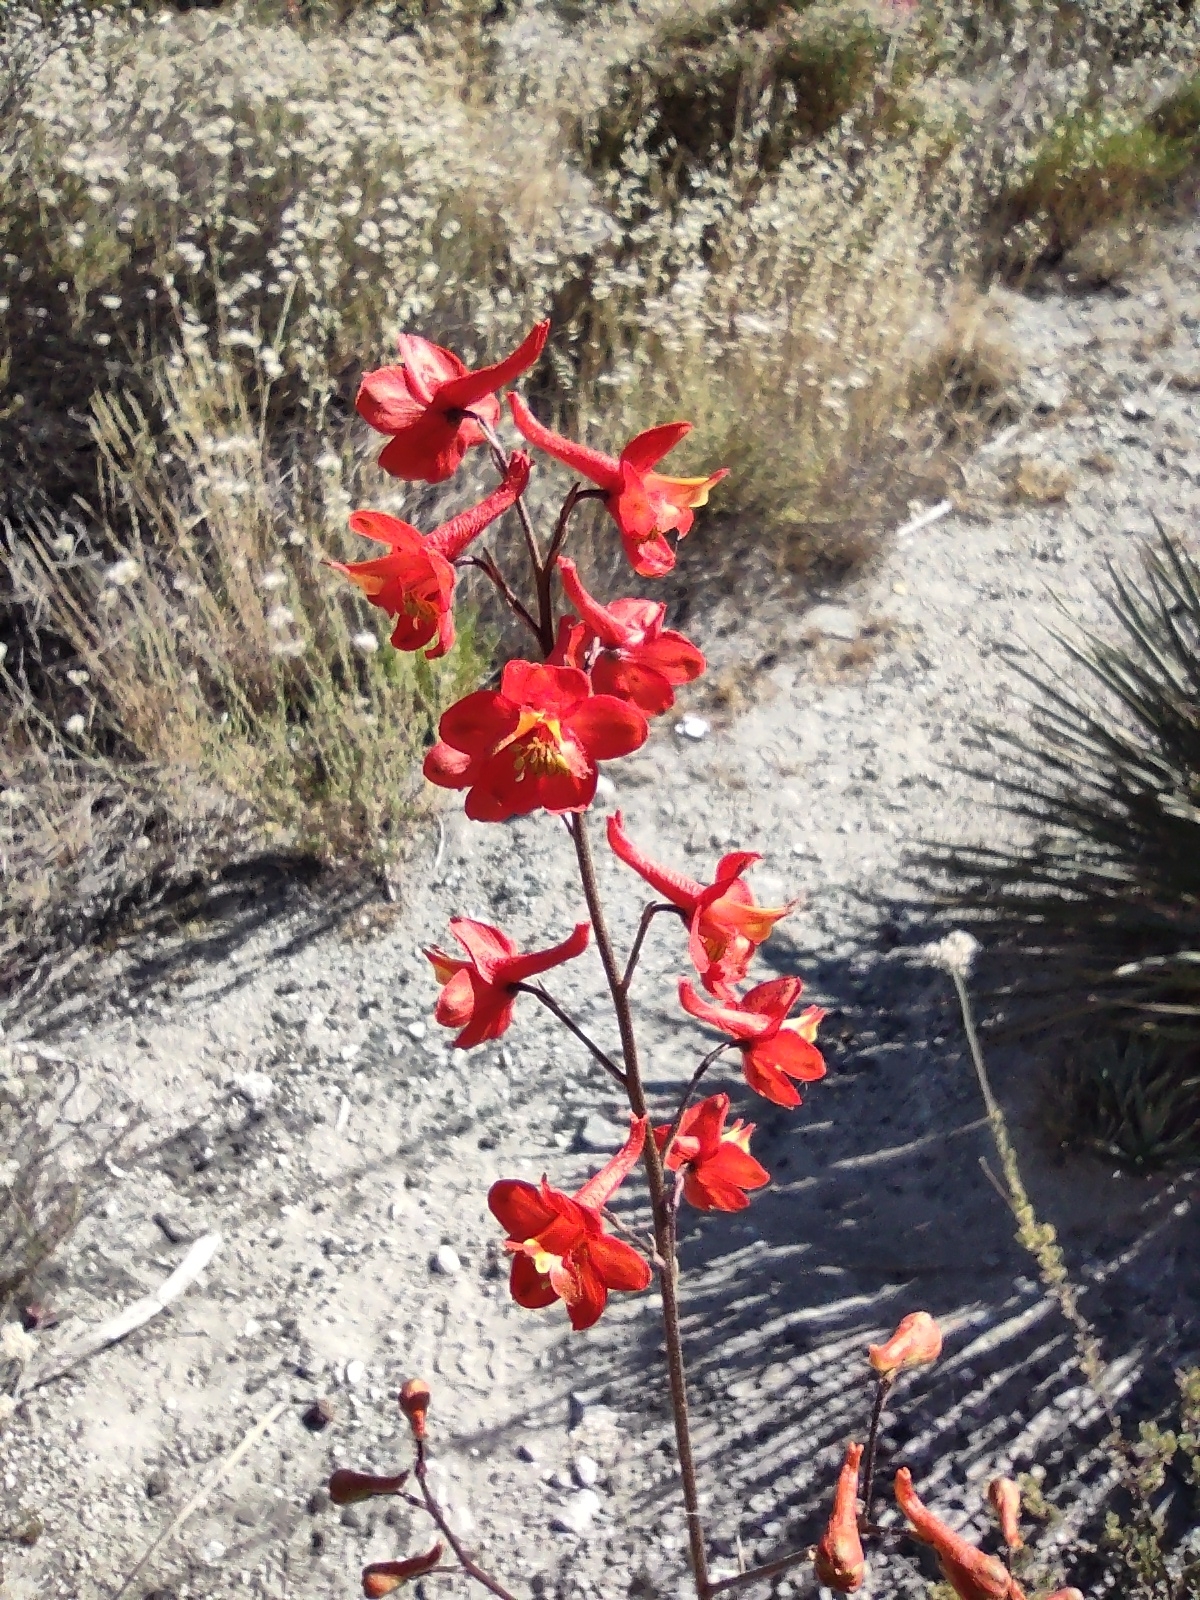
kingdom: Plantae
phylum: Tracheophyta
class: Magnoliopsida
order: Ranunculales
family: Ranunculaceae
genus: Delphinium
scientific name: Delphinium cardinale
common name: Scarlet larkspur
